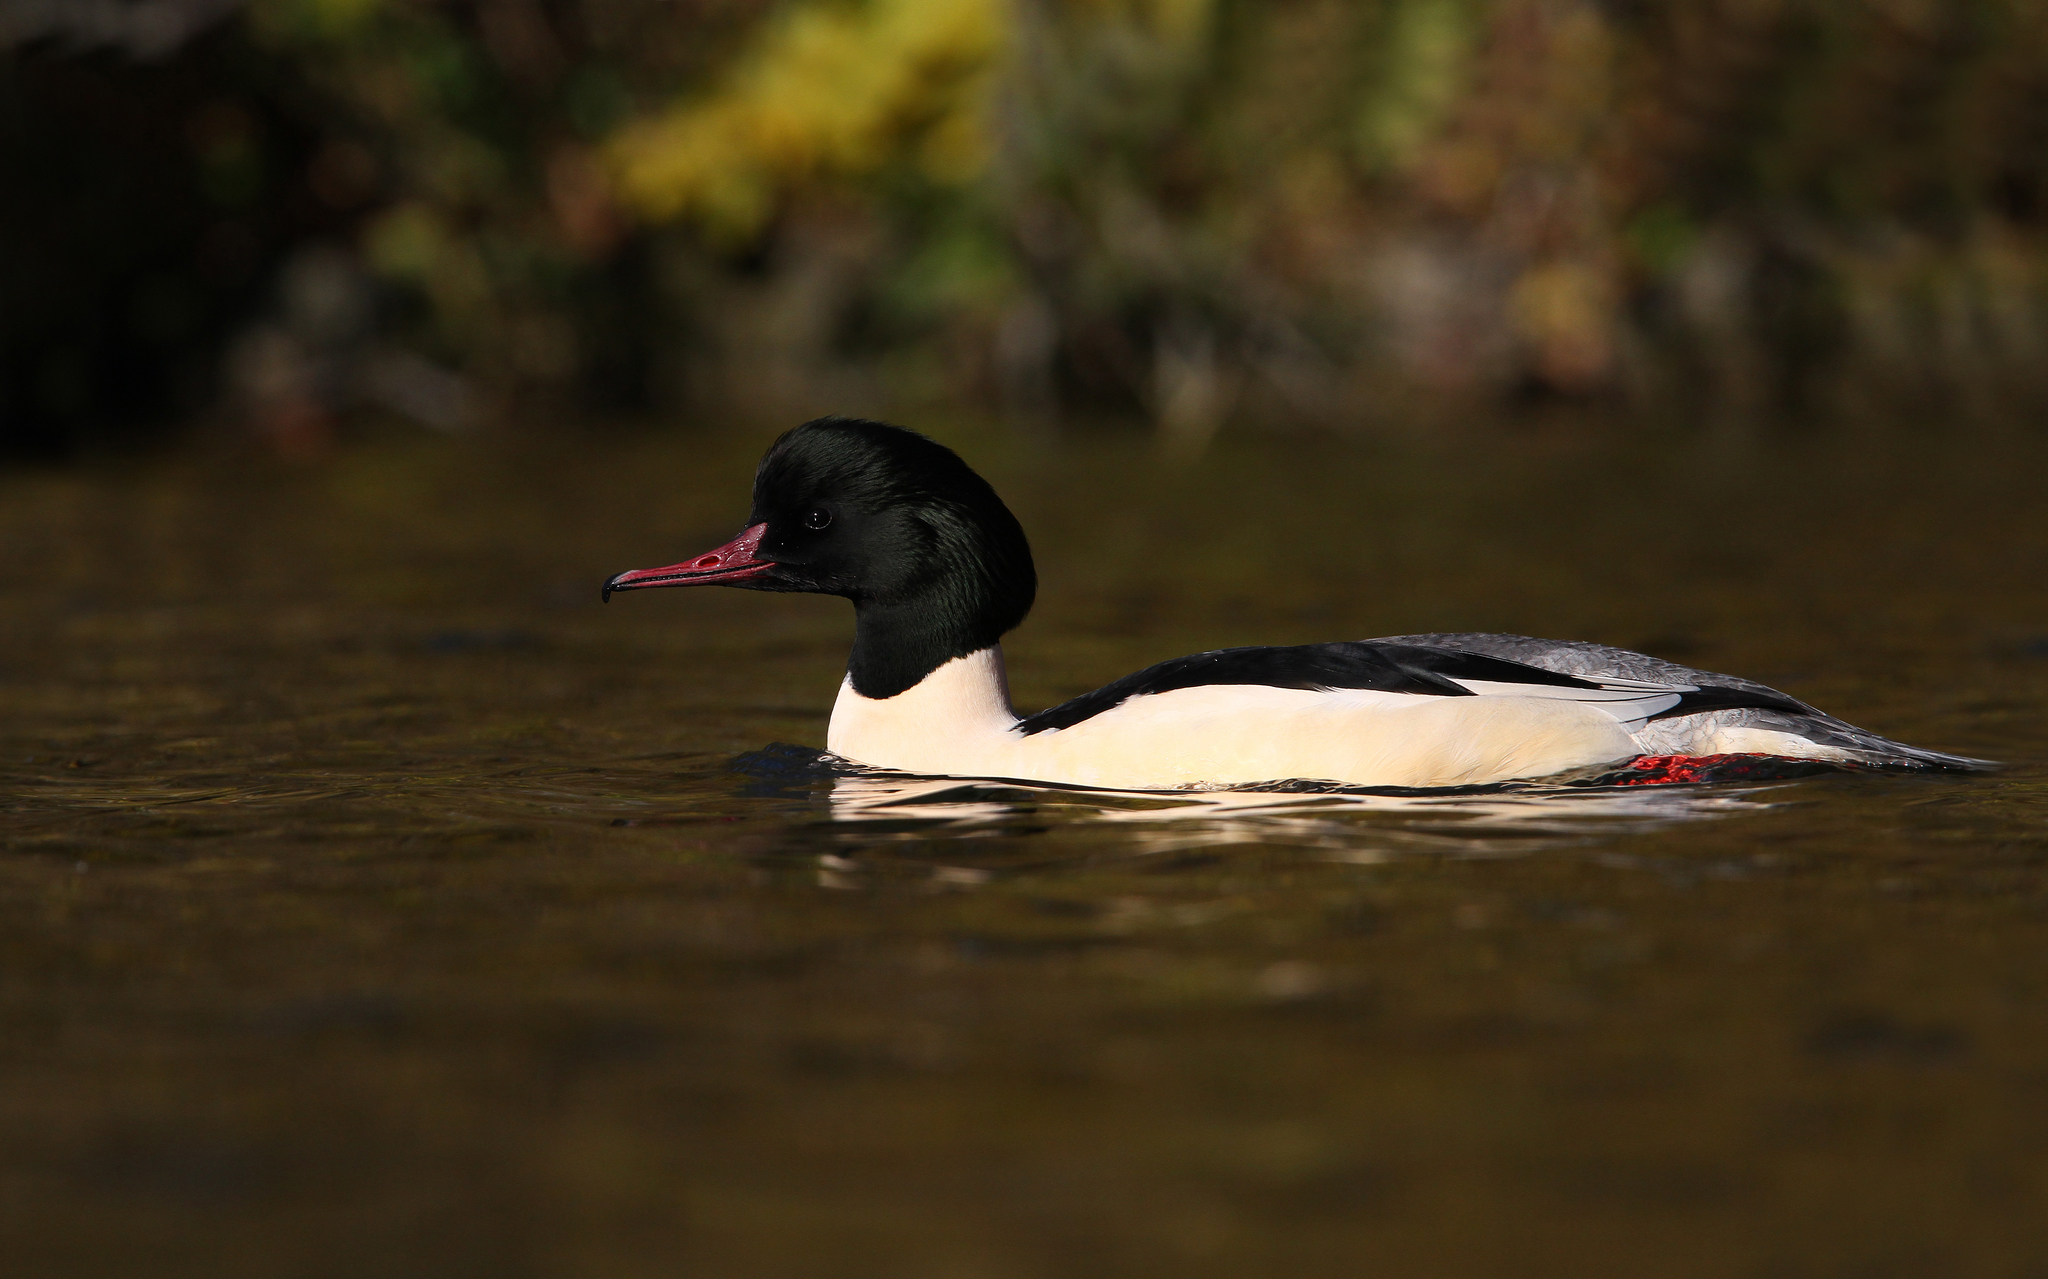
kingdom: Animalia
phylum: Chordata
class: Aves
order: Anseriformes
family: Anatidae
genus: Mergus
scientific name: Mergus merganser
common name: Common merganser
